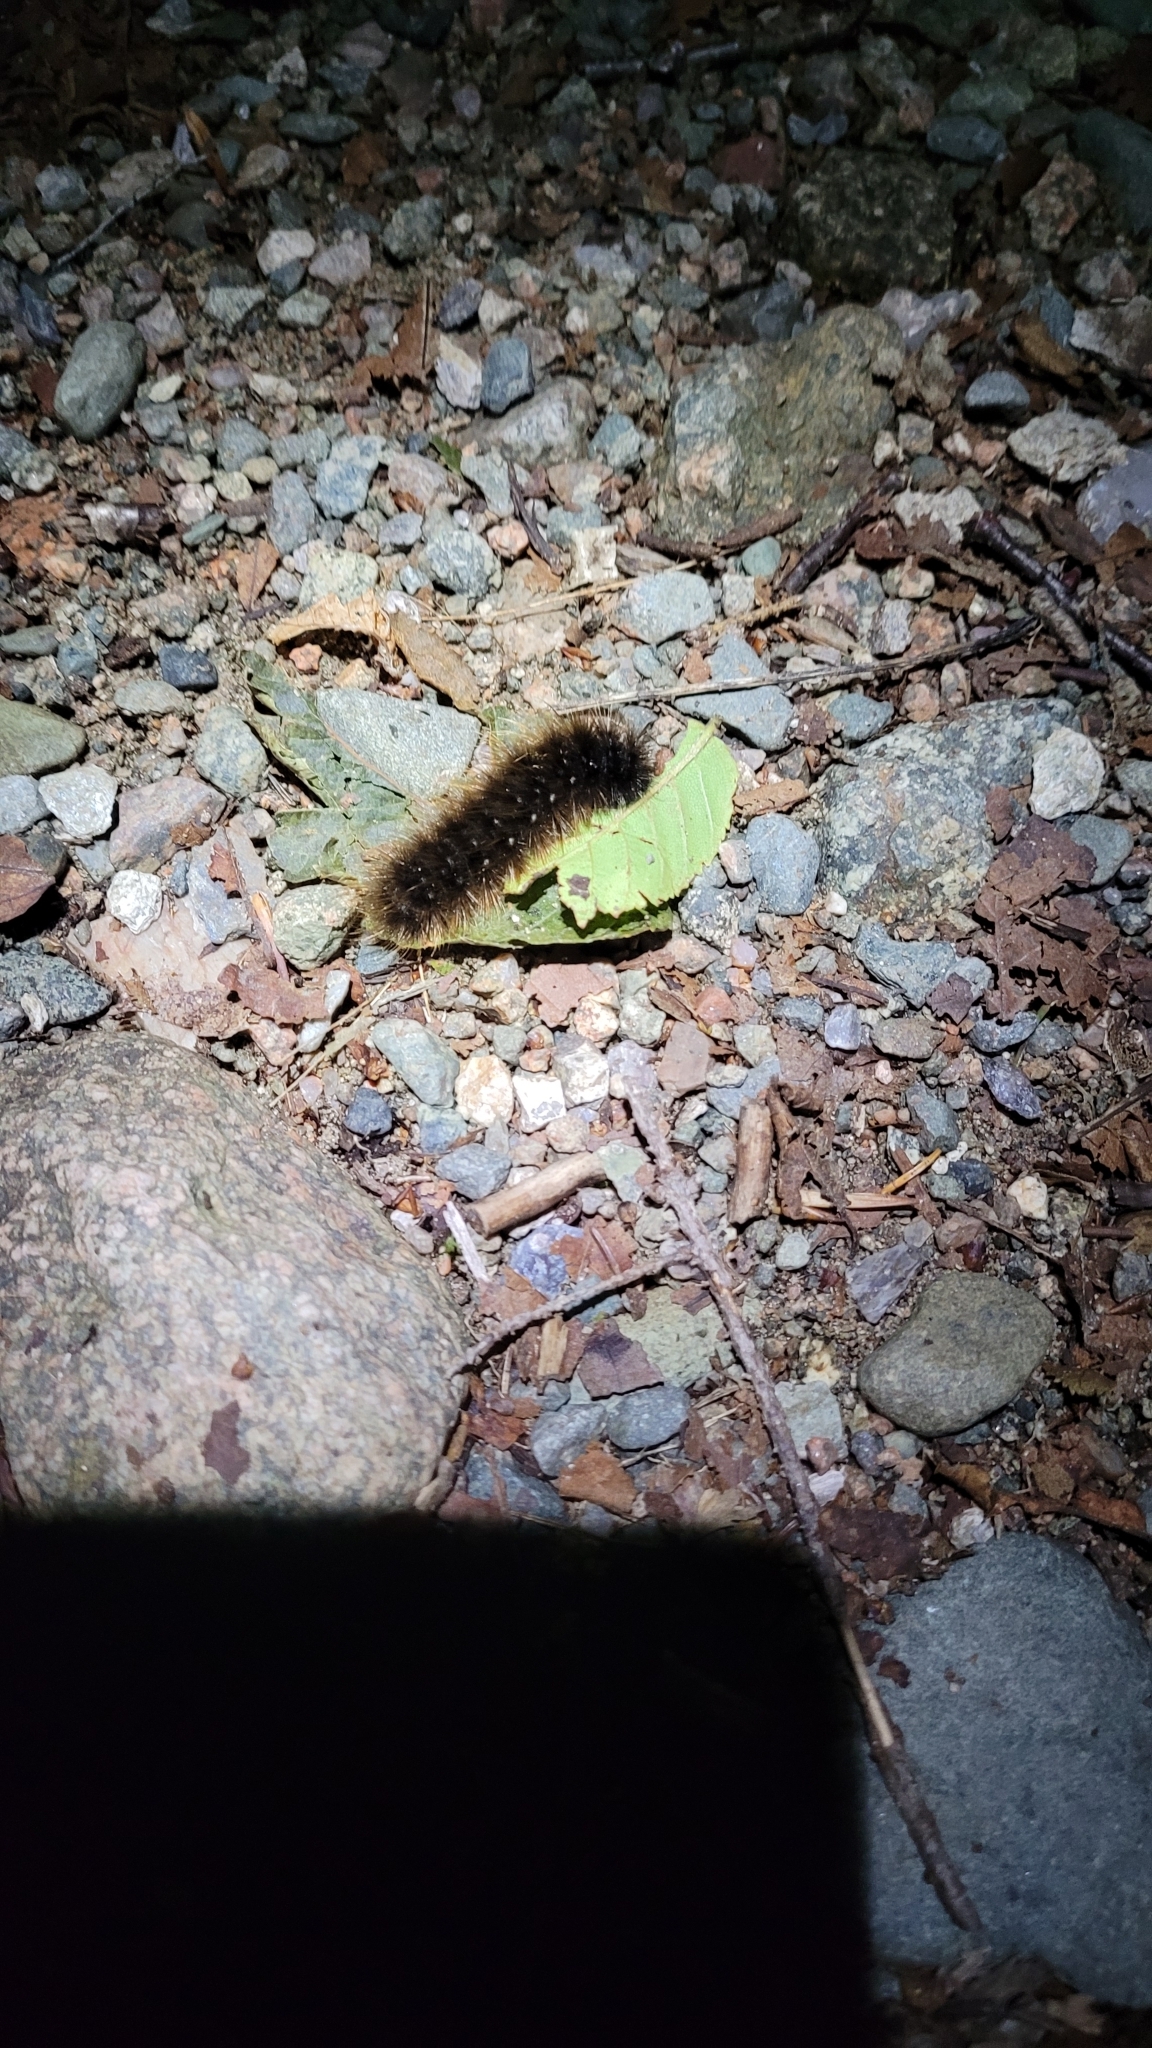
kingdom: Animalia
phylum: Arthropoda
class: Insecta
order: Lepidoptera
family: Erebidae
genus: Arctia
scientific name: Arctia parthenos
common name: St. lawrence tiger moth
